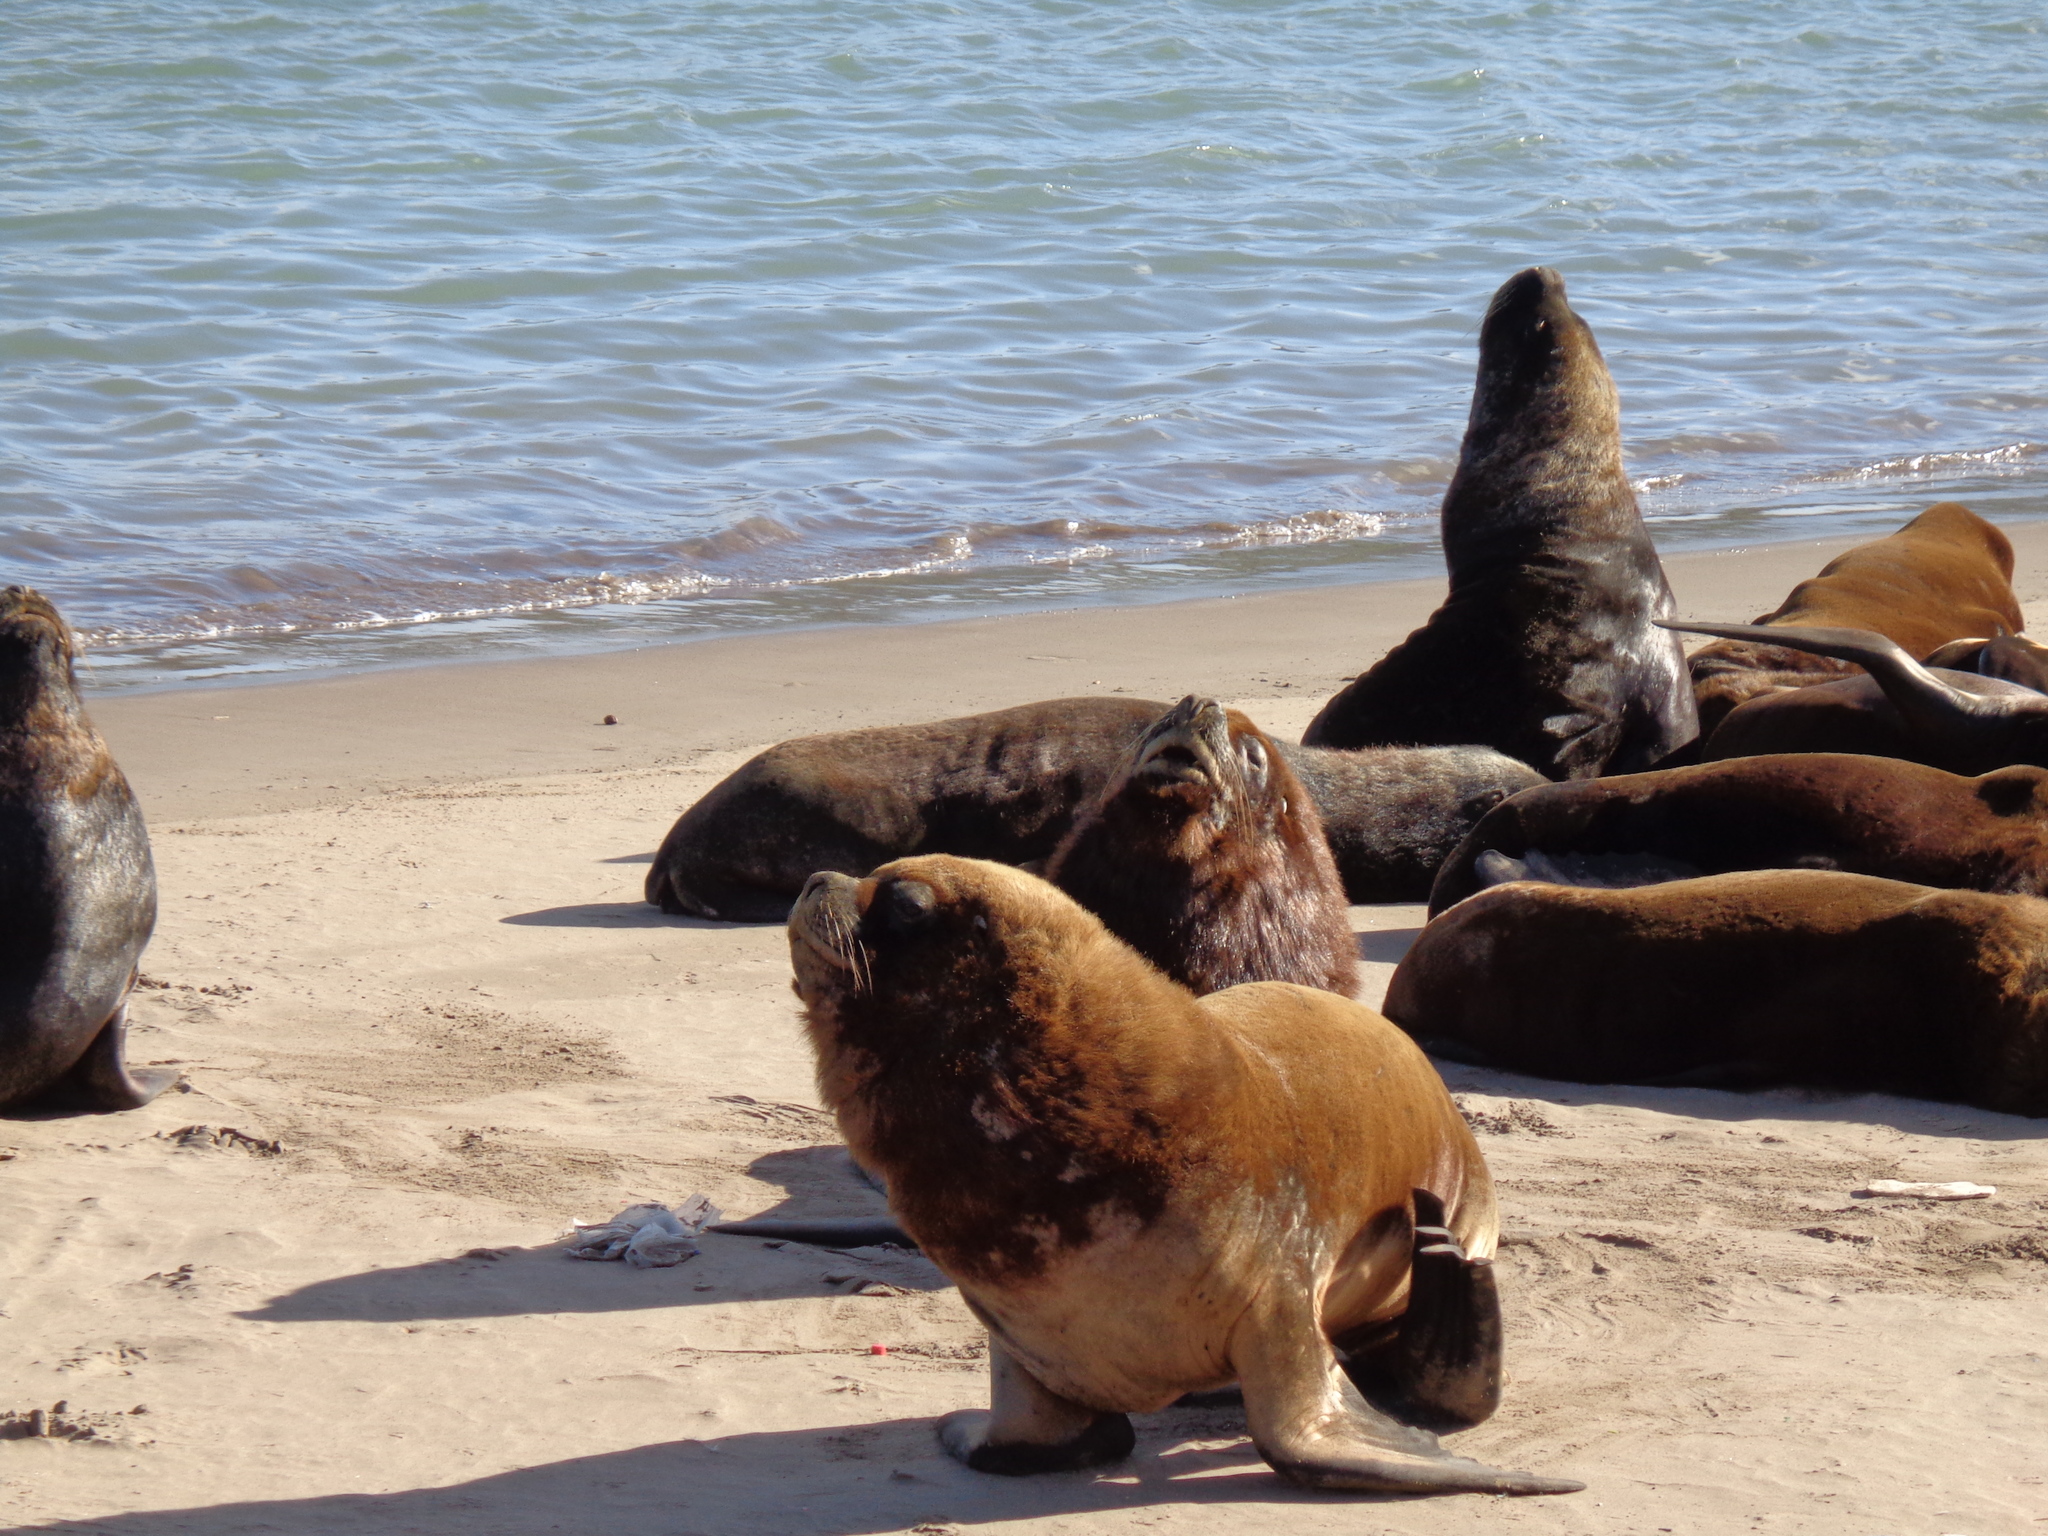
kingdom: Animalia
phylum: Chordata
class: Mammalia
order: Carnivora
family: Otariidae
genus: Otaria
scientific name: Otaria byronia
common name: South american sea lion
